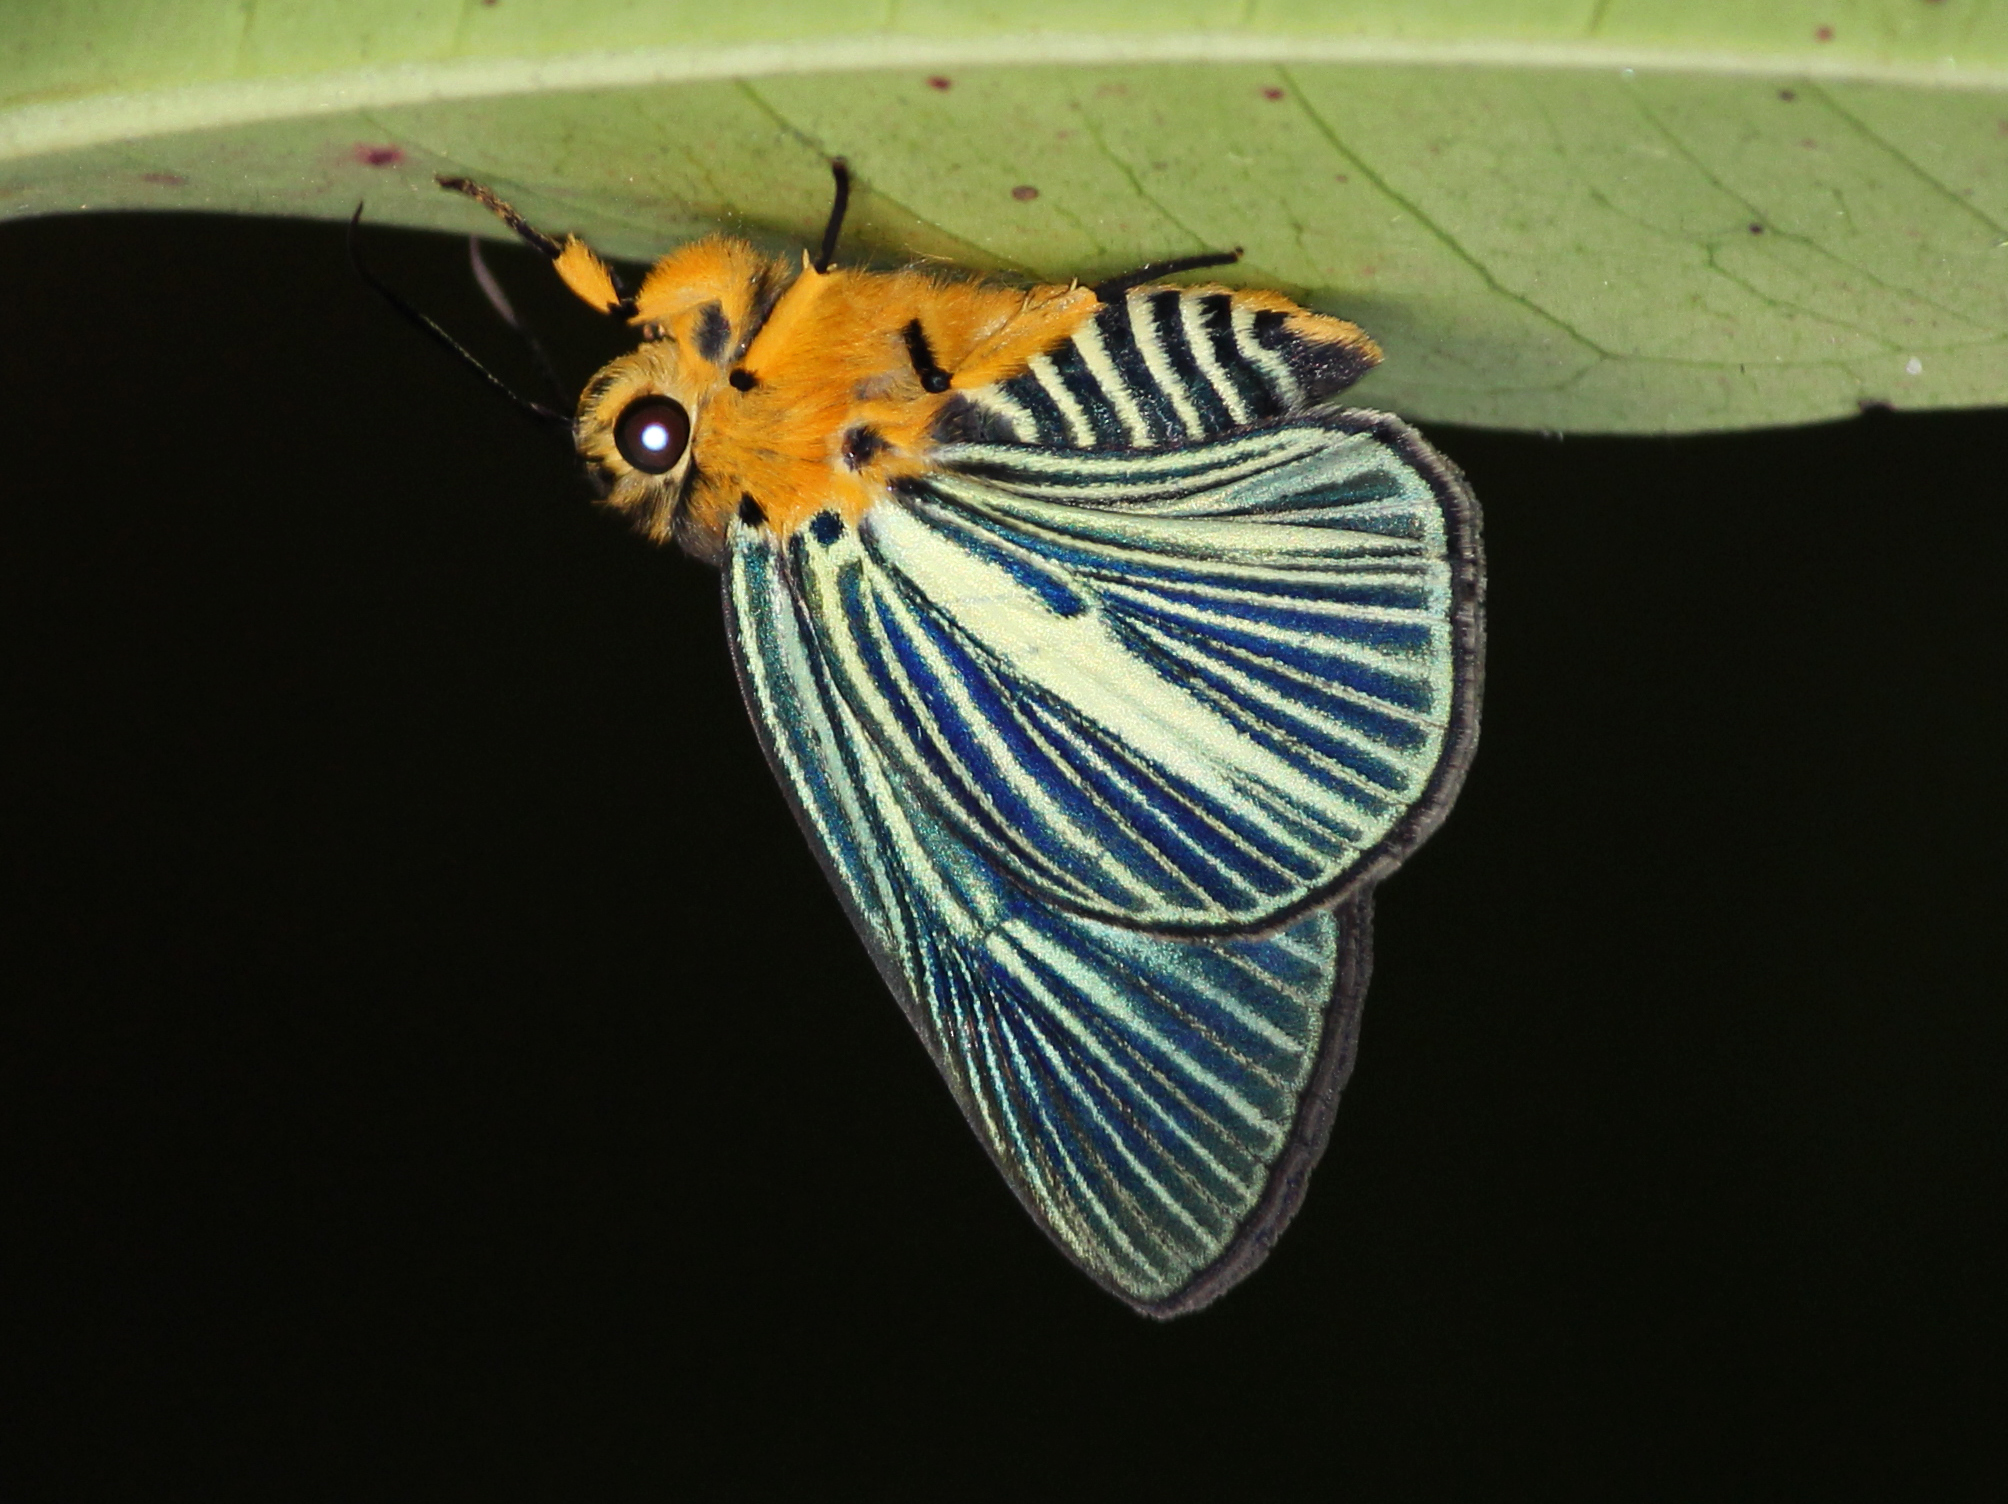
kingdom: Animalia
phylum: Arthropoda
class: Insecta
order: Lepidoptera
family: Hesperiidae
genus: Bibasis
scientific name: Bibasis gomata
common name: Pale green awlet
